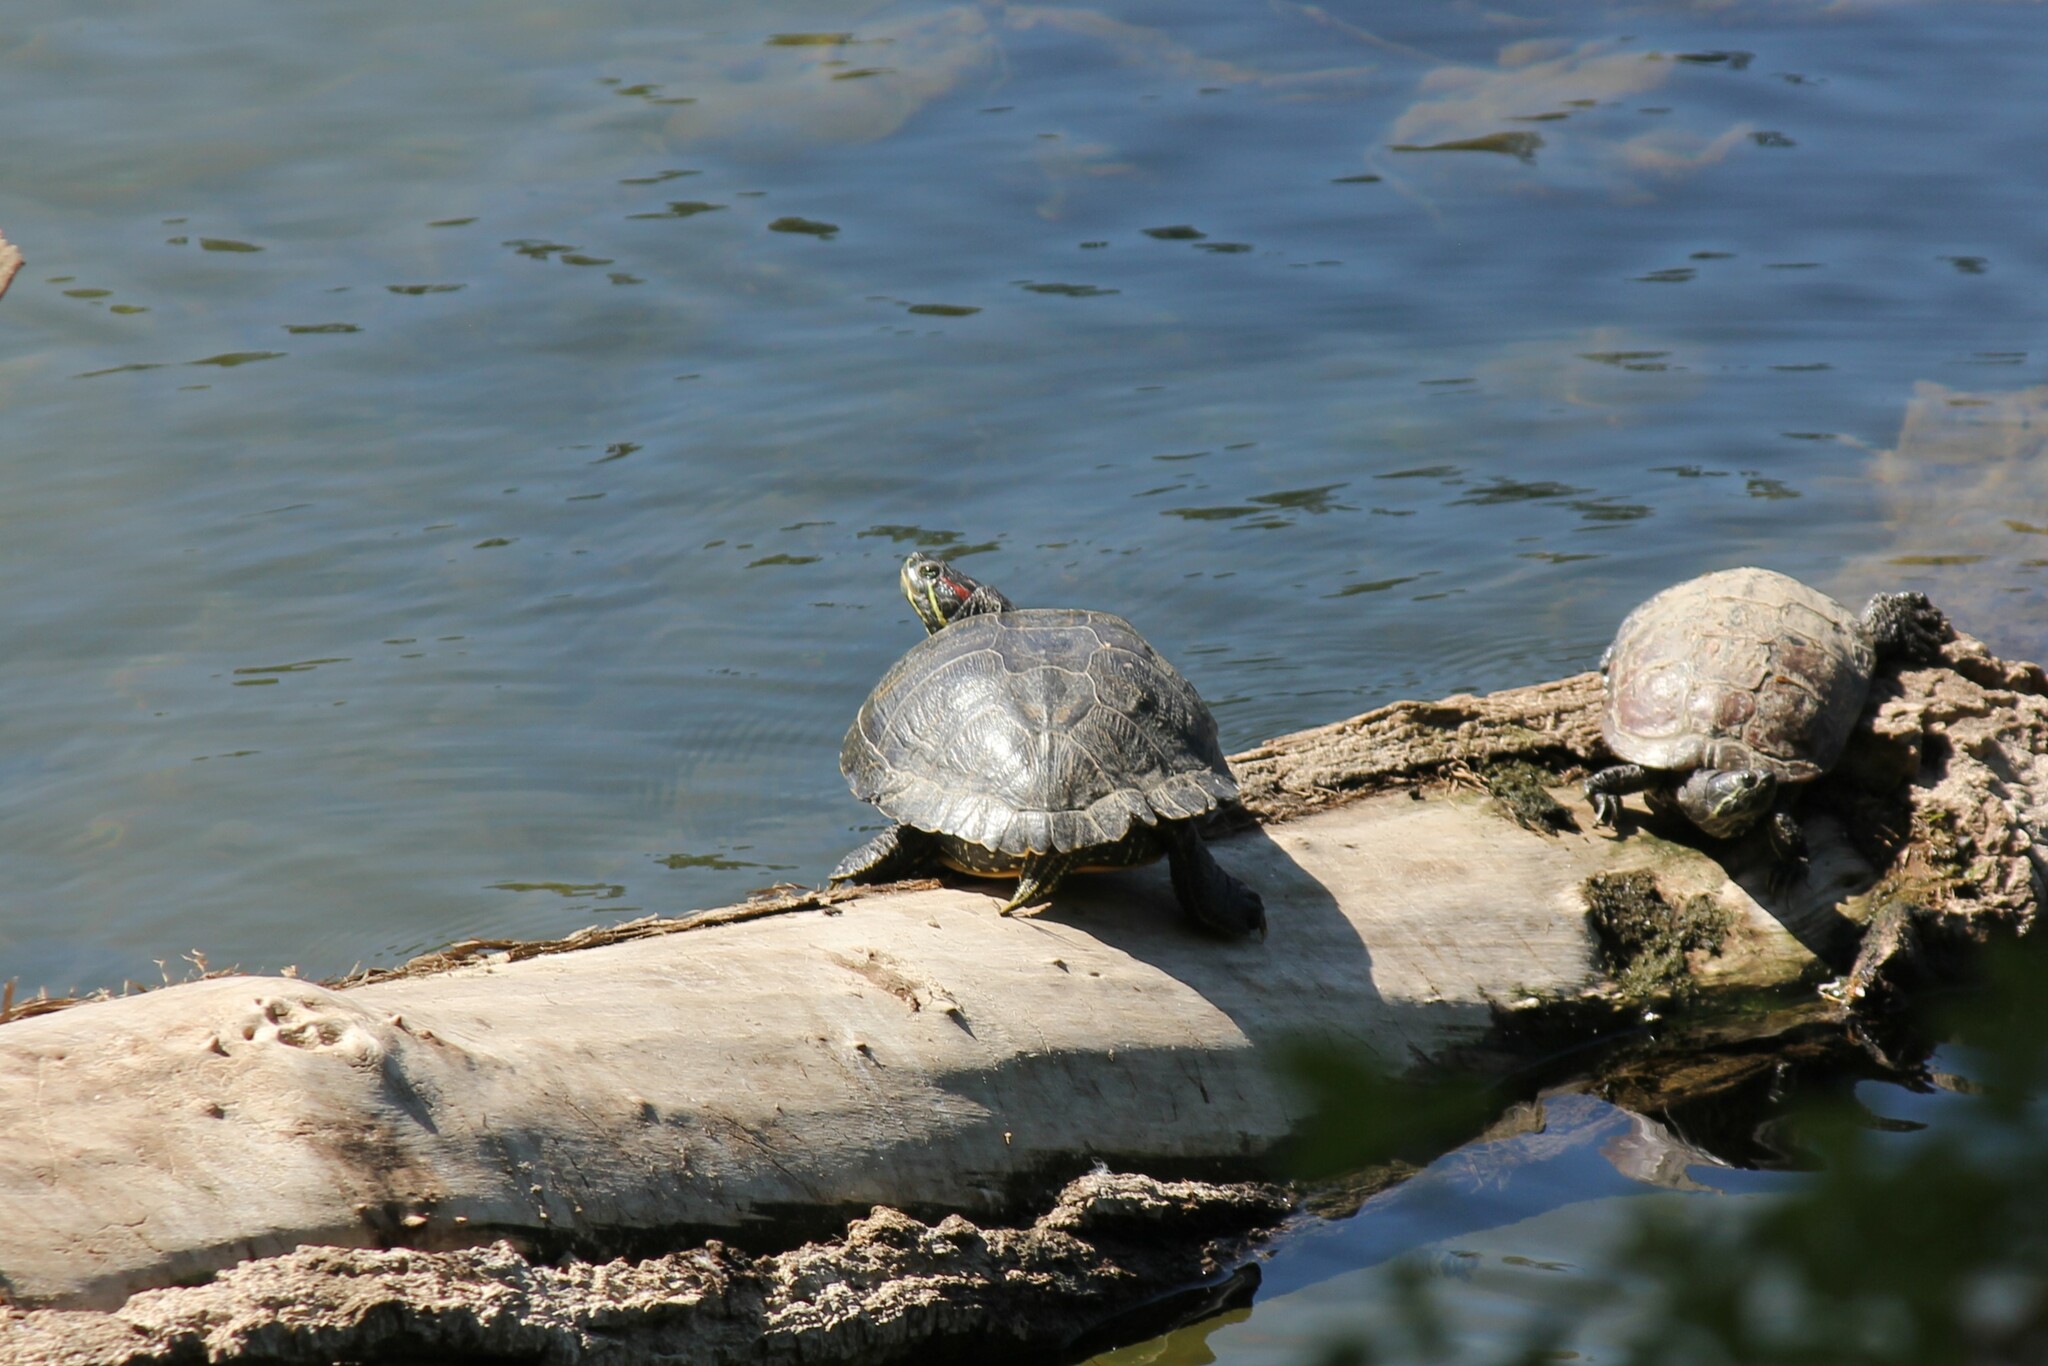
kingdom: Animalia
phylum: Chordata
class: Testudines
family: Emydidae
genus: Trachemys
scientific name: Trachemys scripta
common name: Slider
